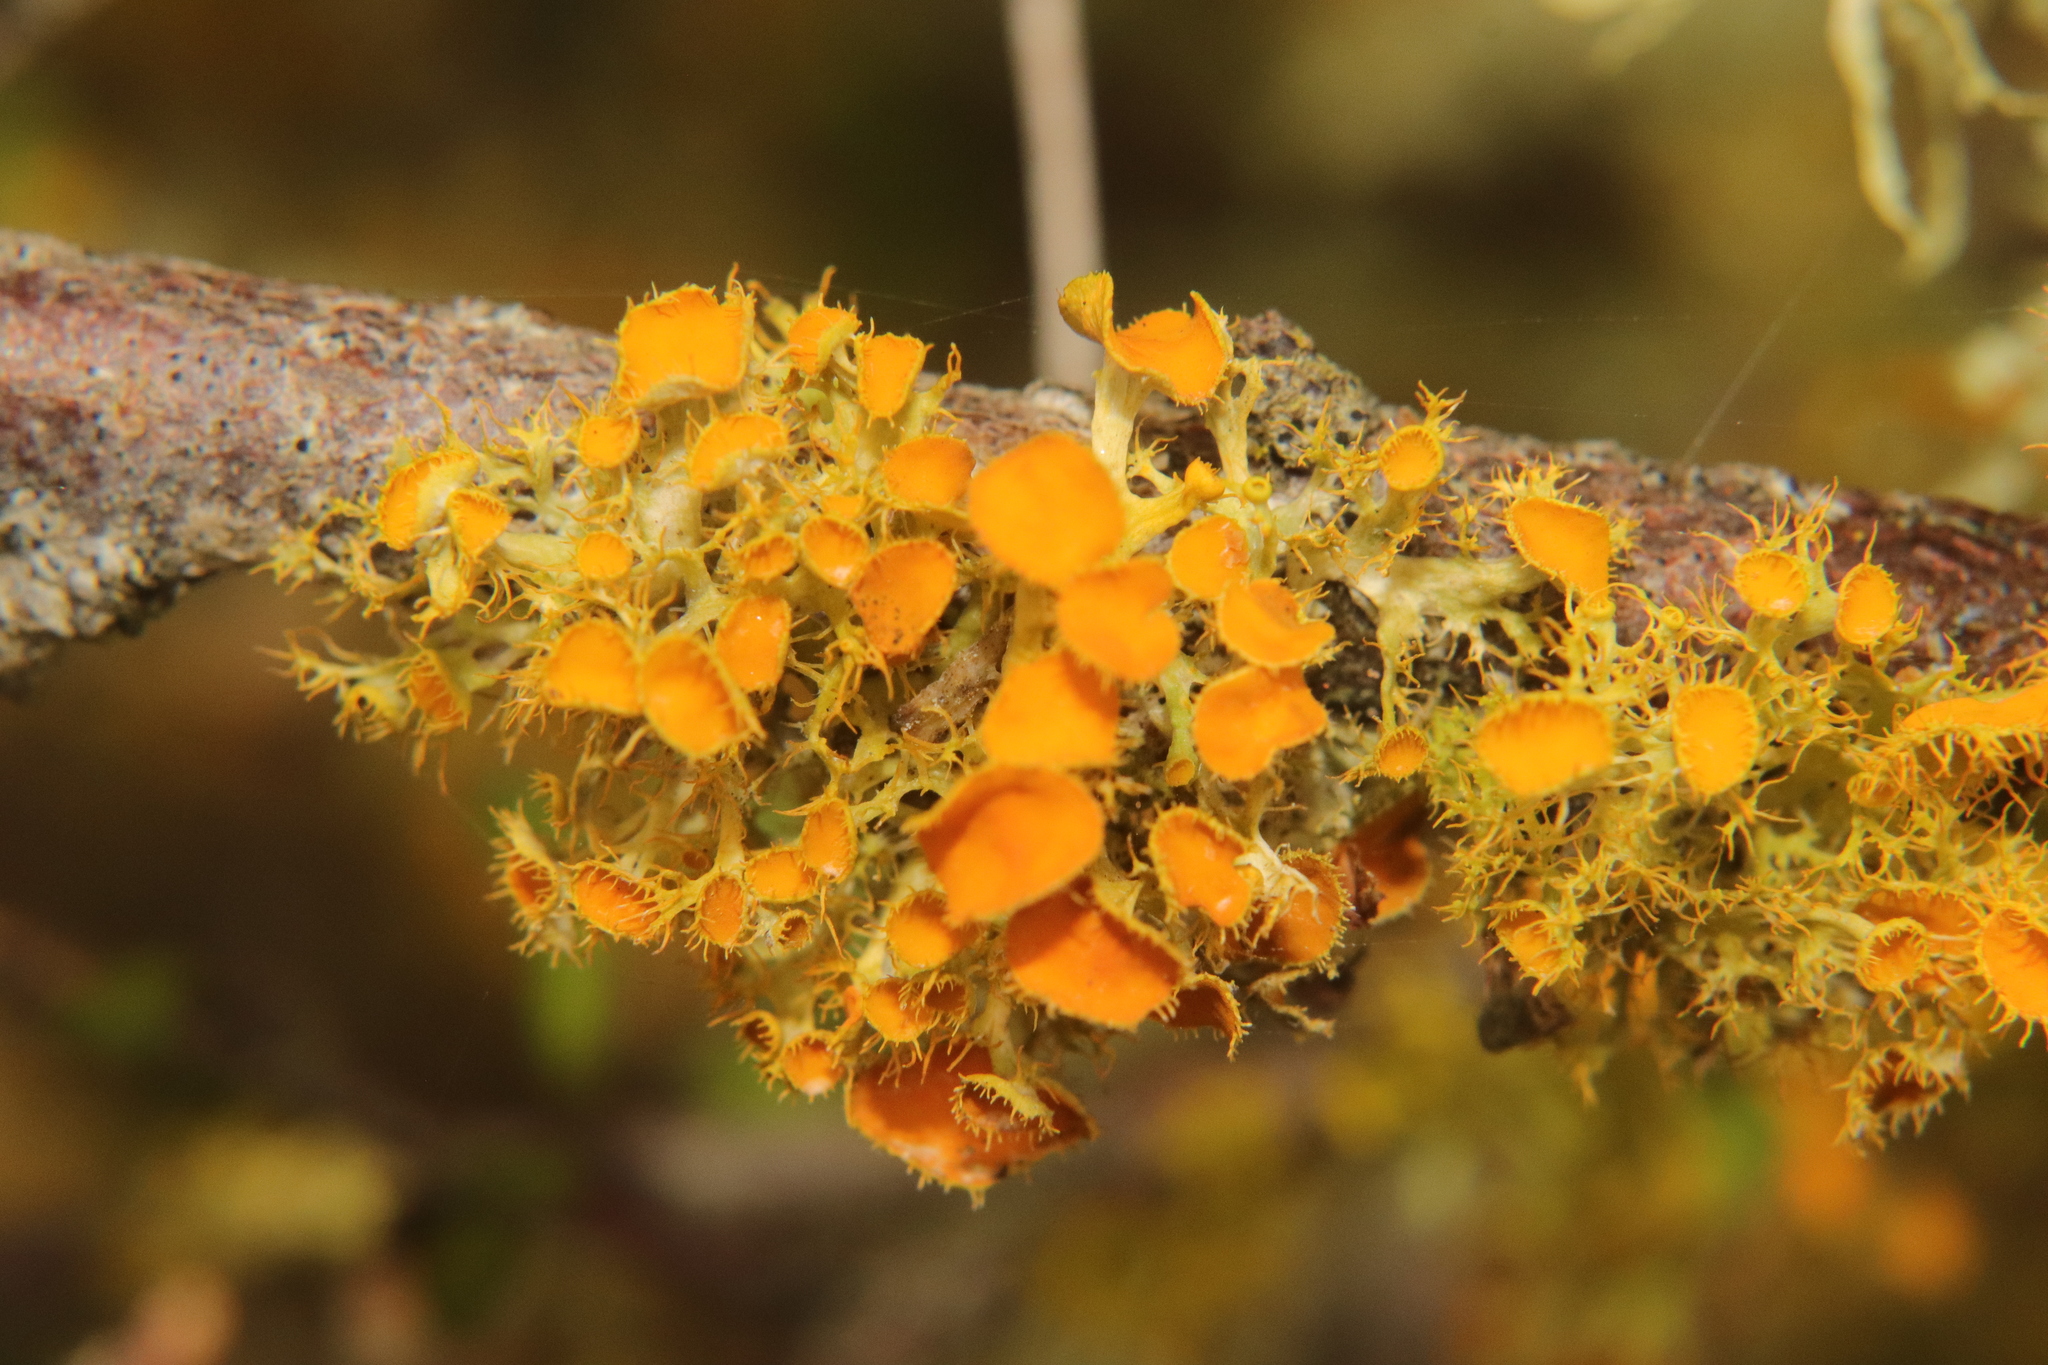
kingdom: Fungi
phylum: Ascomycota
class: Lecanoromycetes
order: Teloschistales
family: Teloschistaceae
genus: Niorma
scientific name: Niorma chrysophthalma
